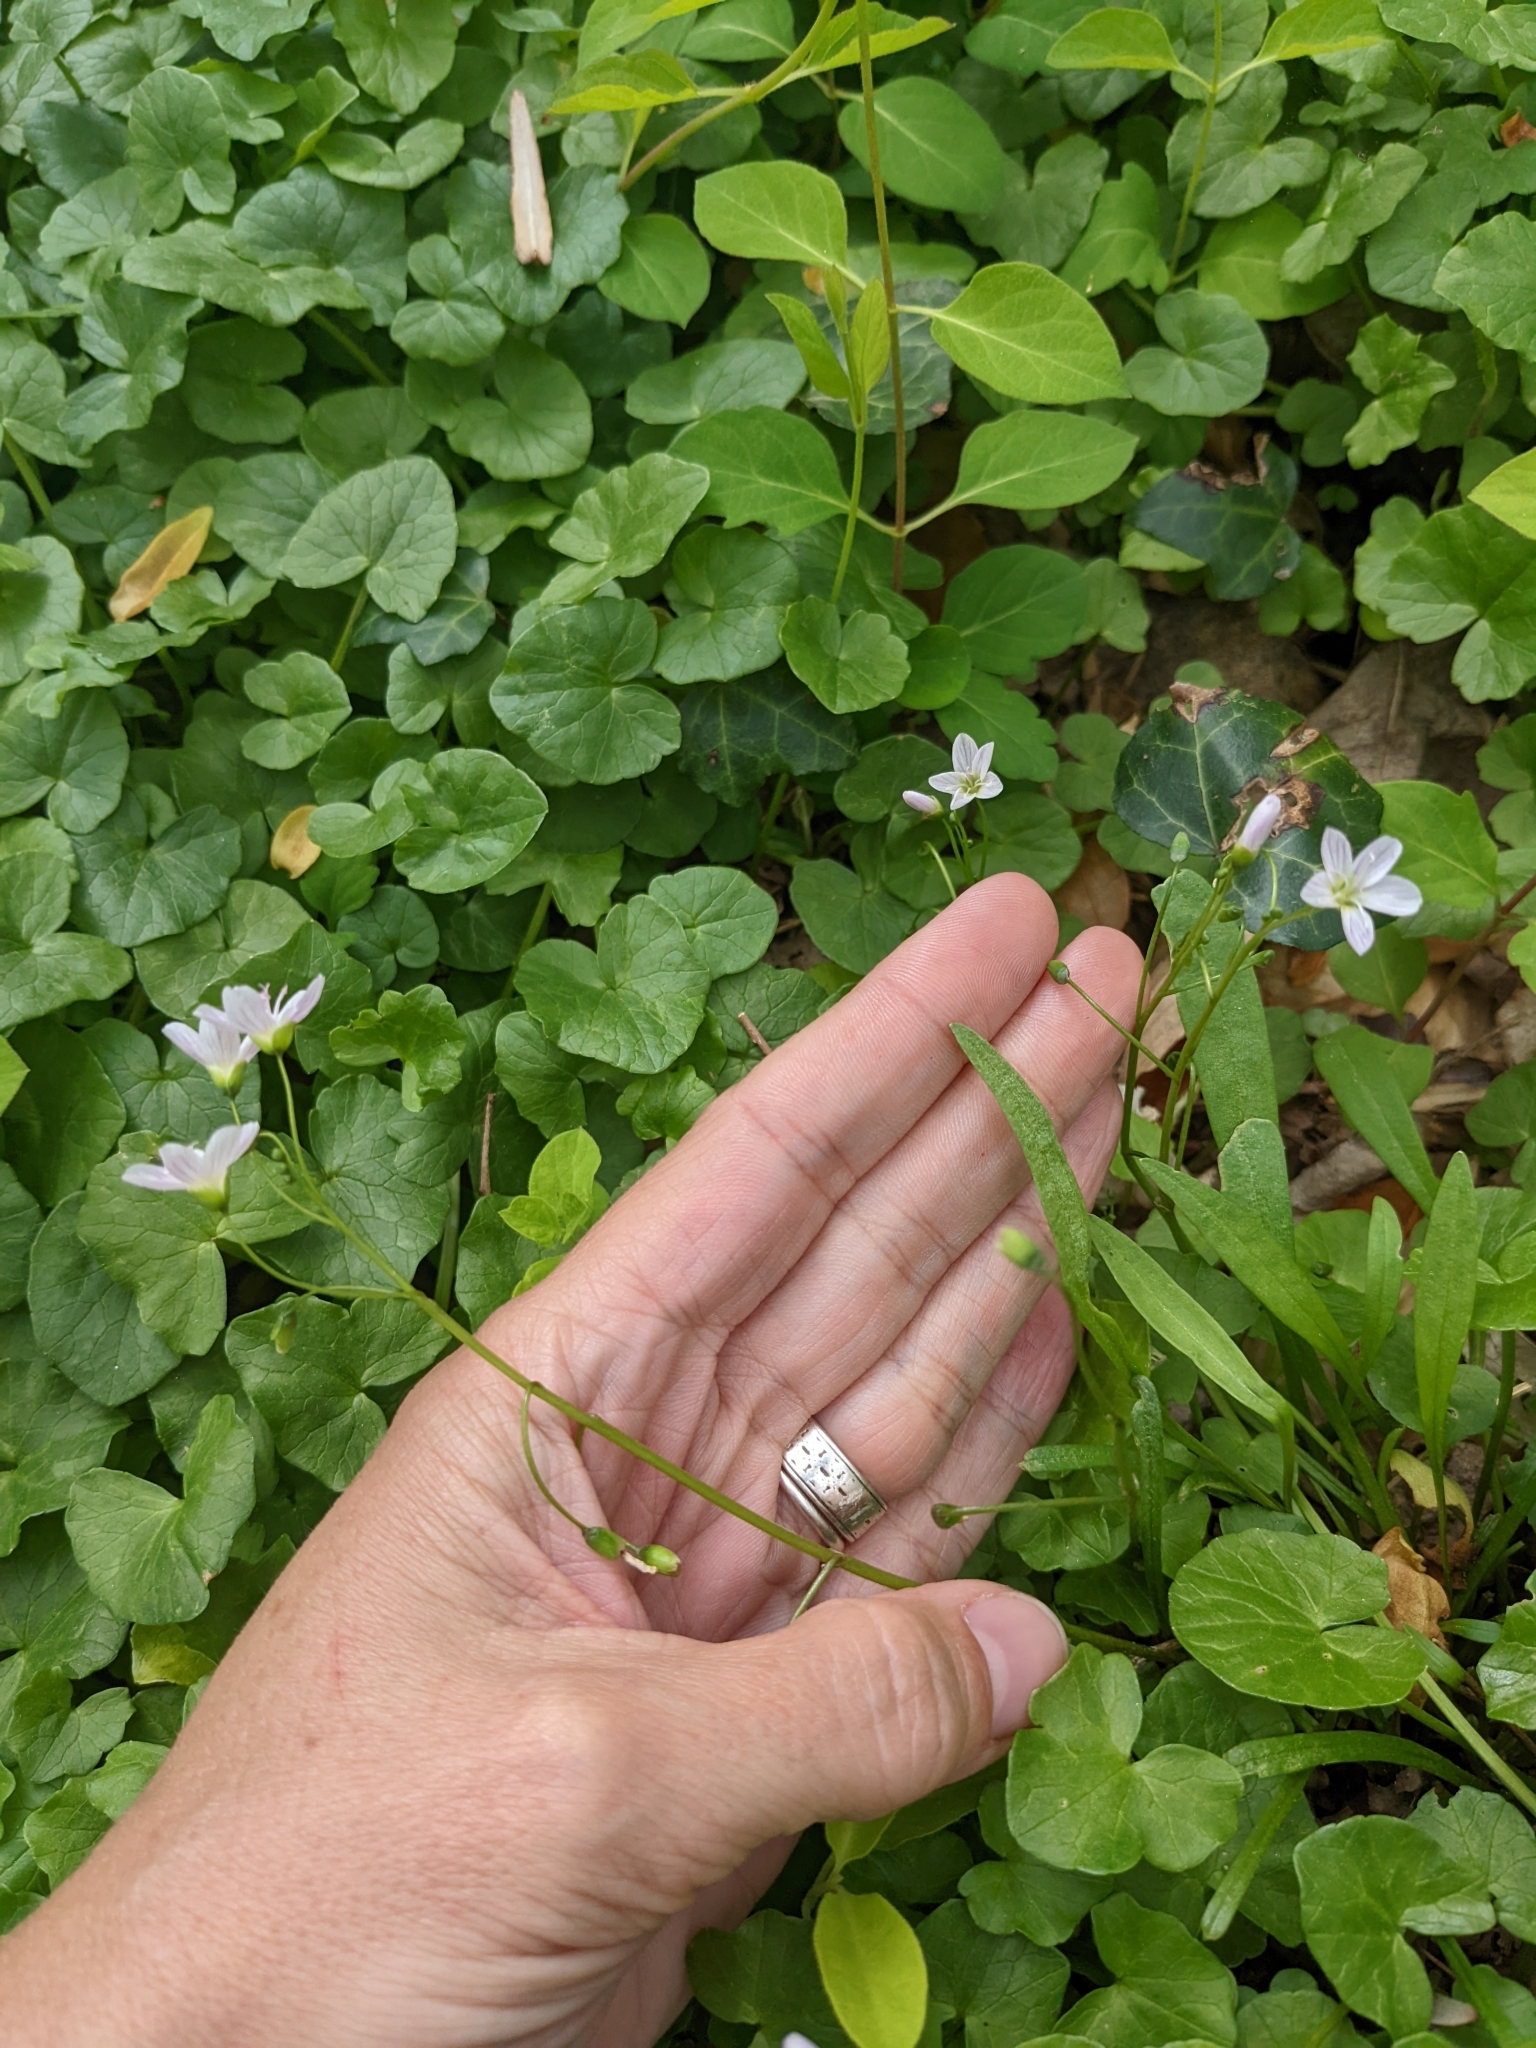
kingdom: Plantae
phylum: Tracheophyta
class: Magnoliopsida
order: Caryophyllales
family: Montiaceae
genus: Claytonia
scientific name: Claytonia virginica
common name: Virginia springbeauty
